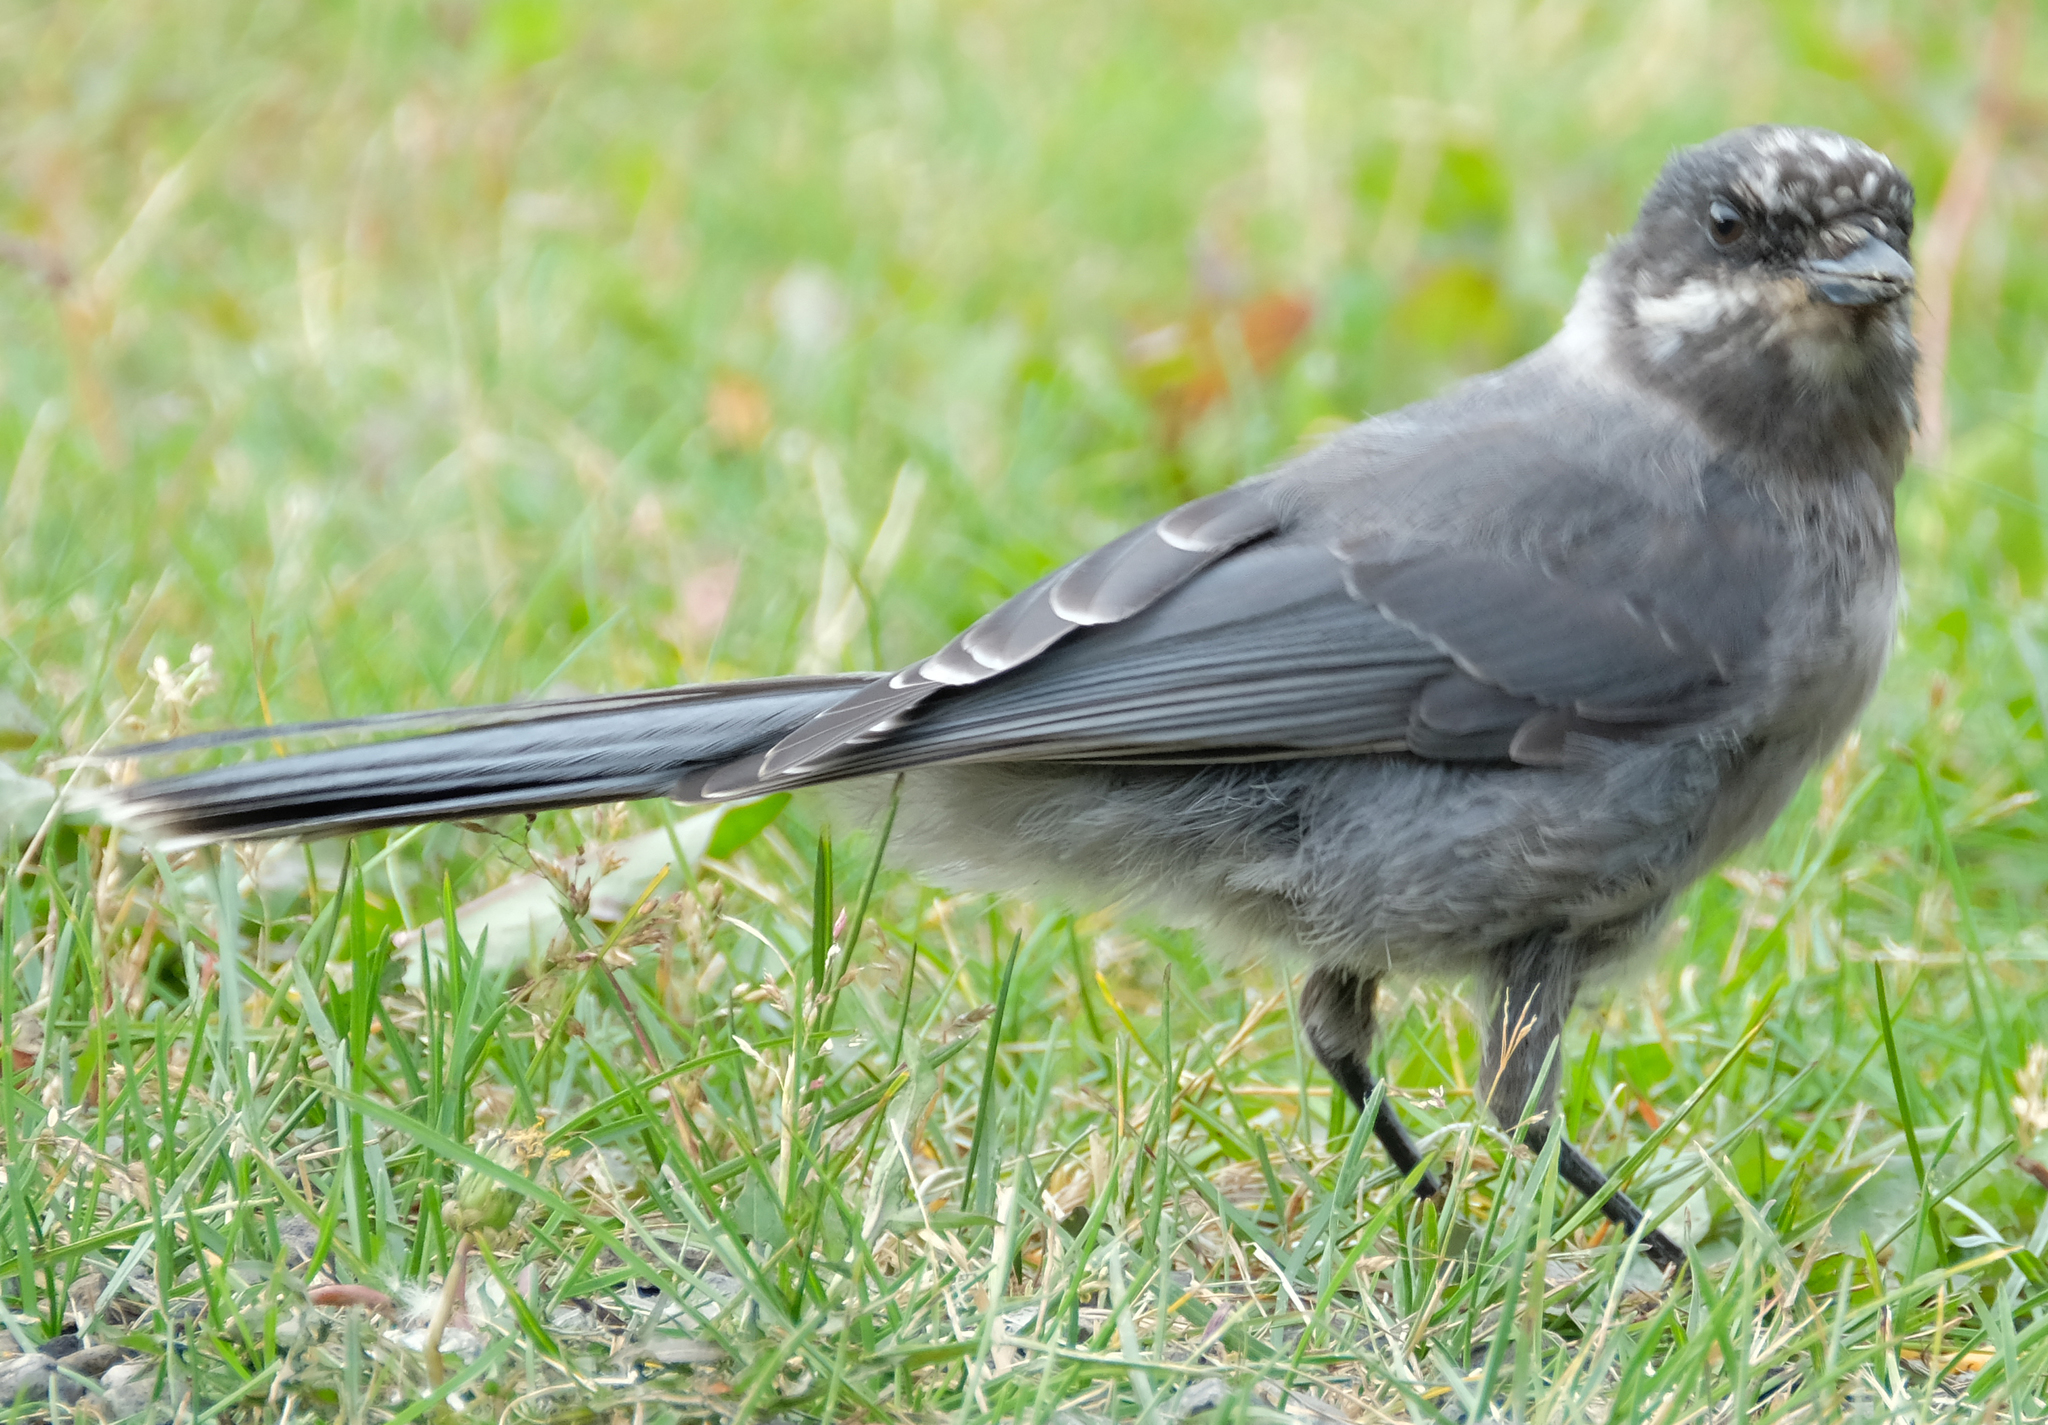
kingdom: Animalia
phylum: Chordata
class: Aves
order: Passeriformes
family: Corvidae
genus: Perisoreus
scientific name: Perisoreus canadensis
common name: Gray jay
